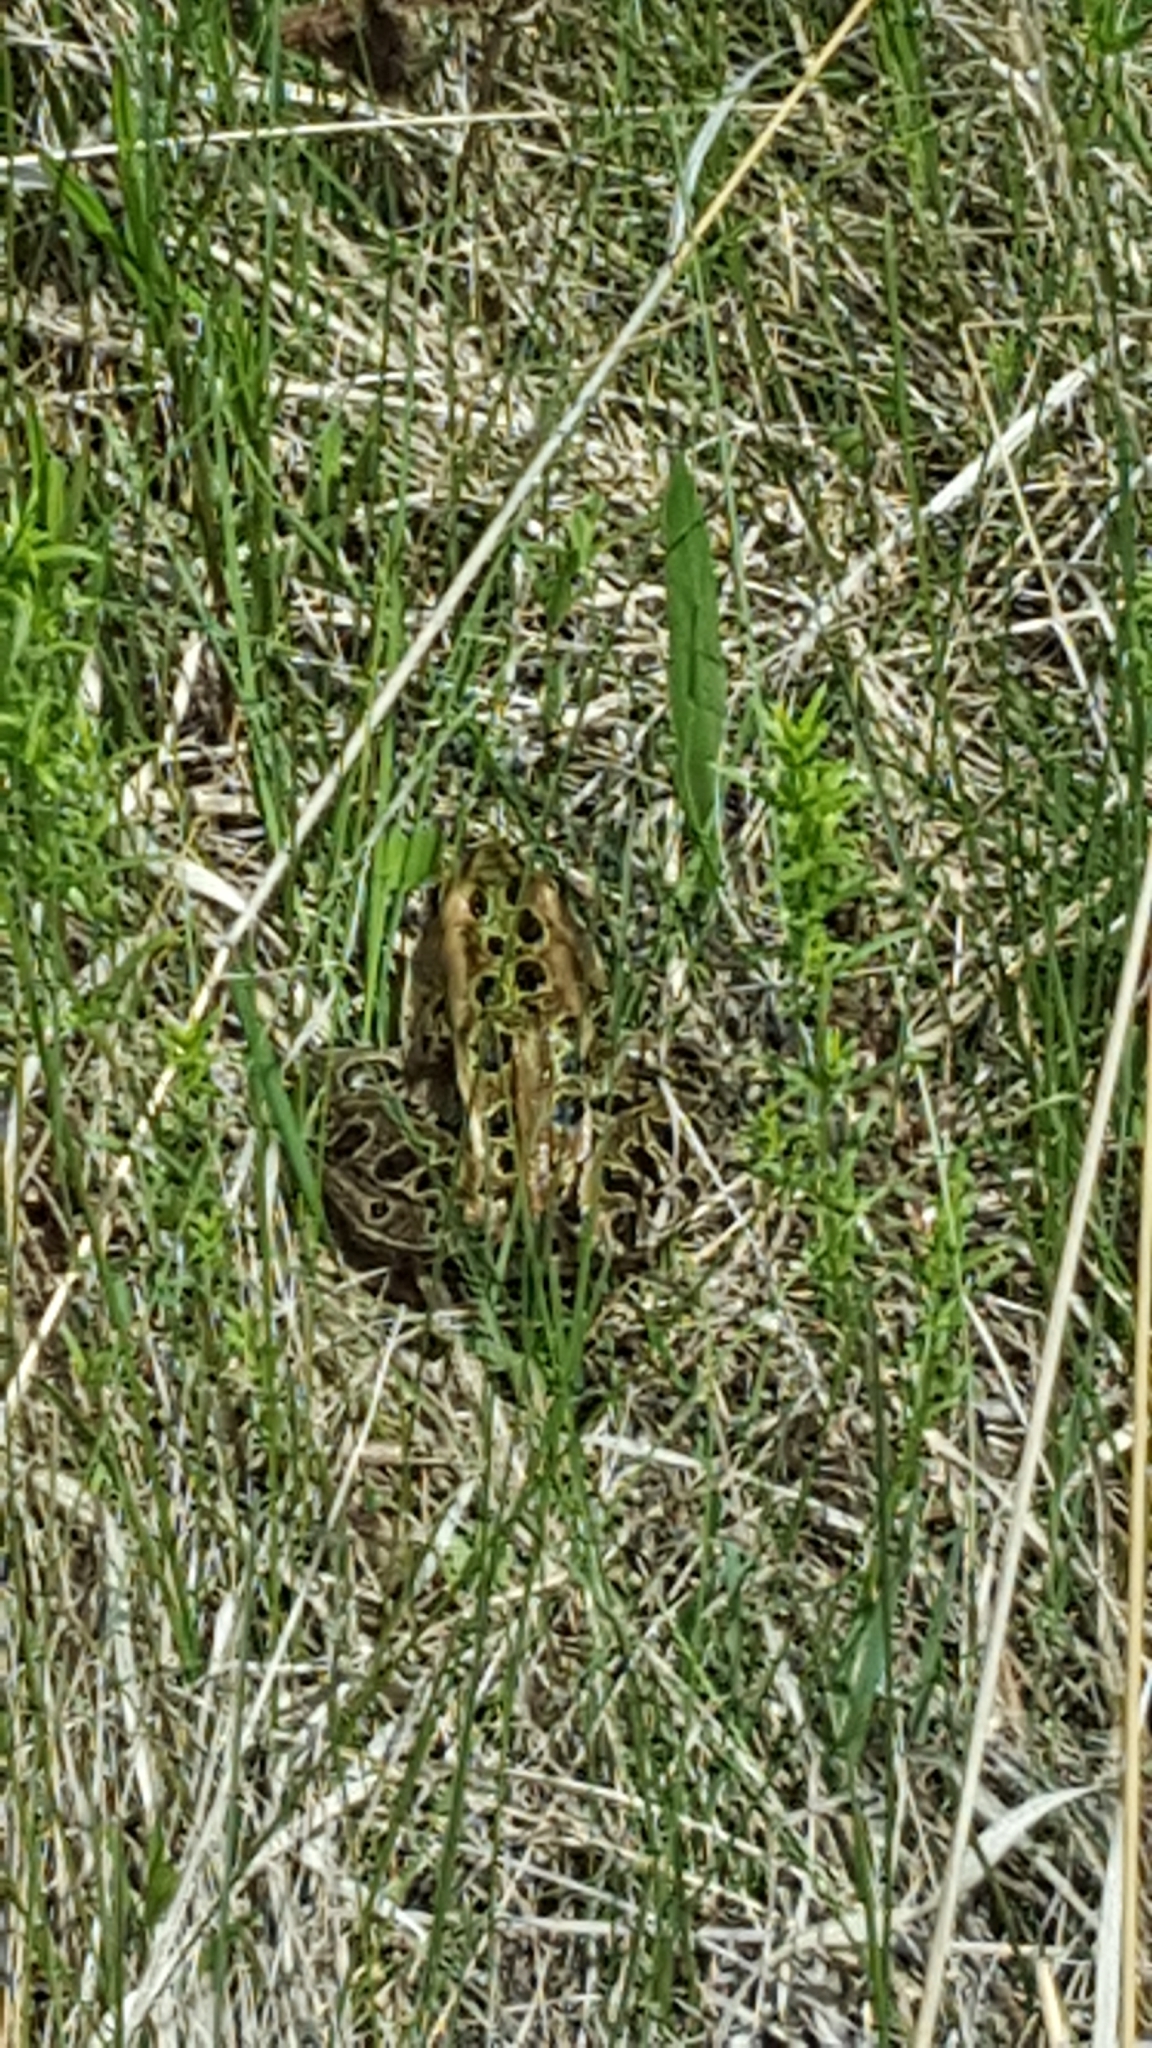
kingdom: Animalia
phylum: Chordata
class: Amphibia
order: Anura
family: Ranidae
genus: Lithobates
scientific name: Lithobates pipiens
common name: Northern leopard frog
